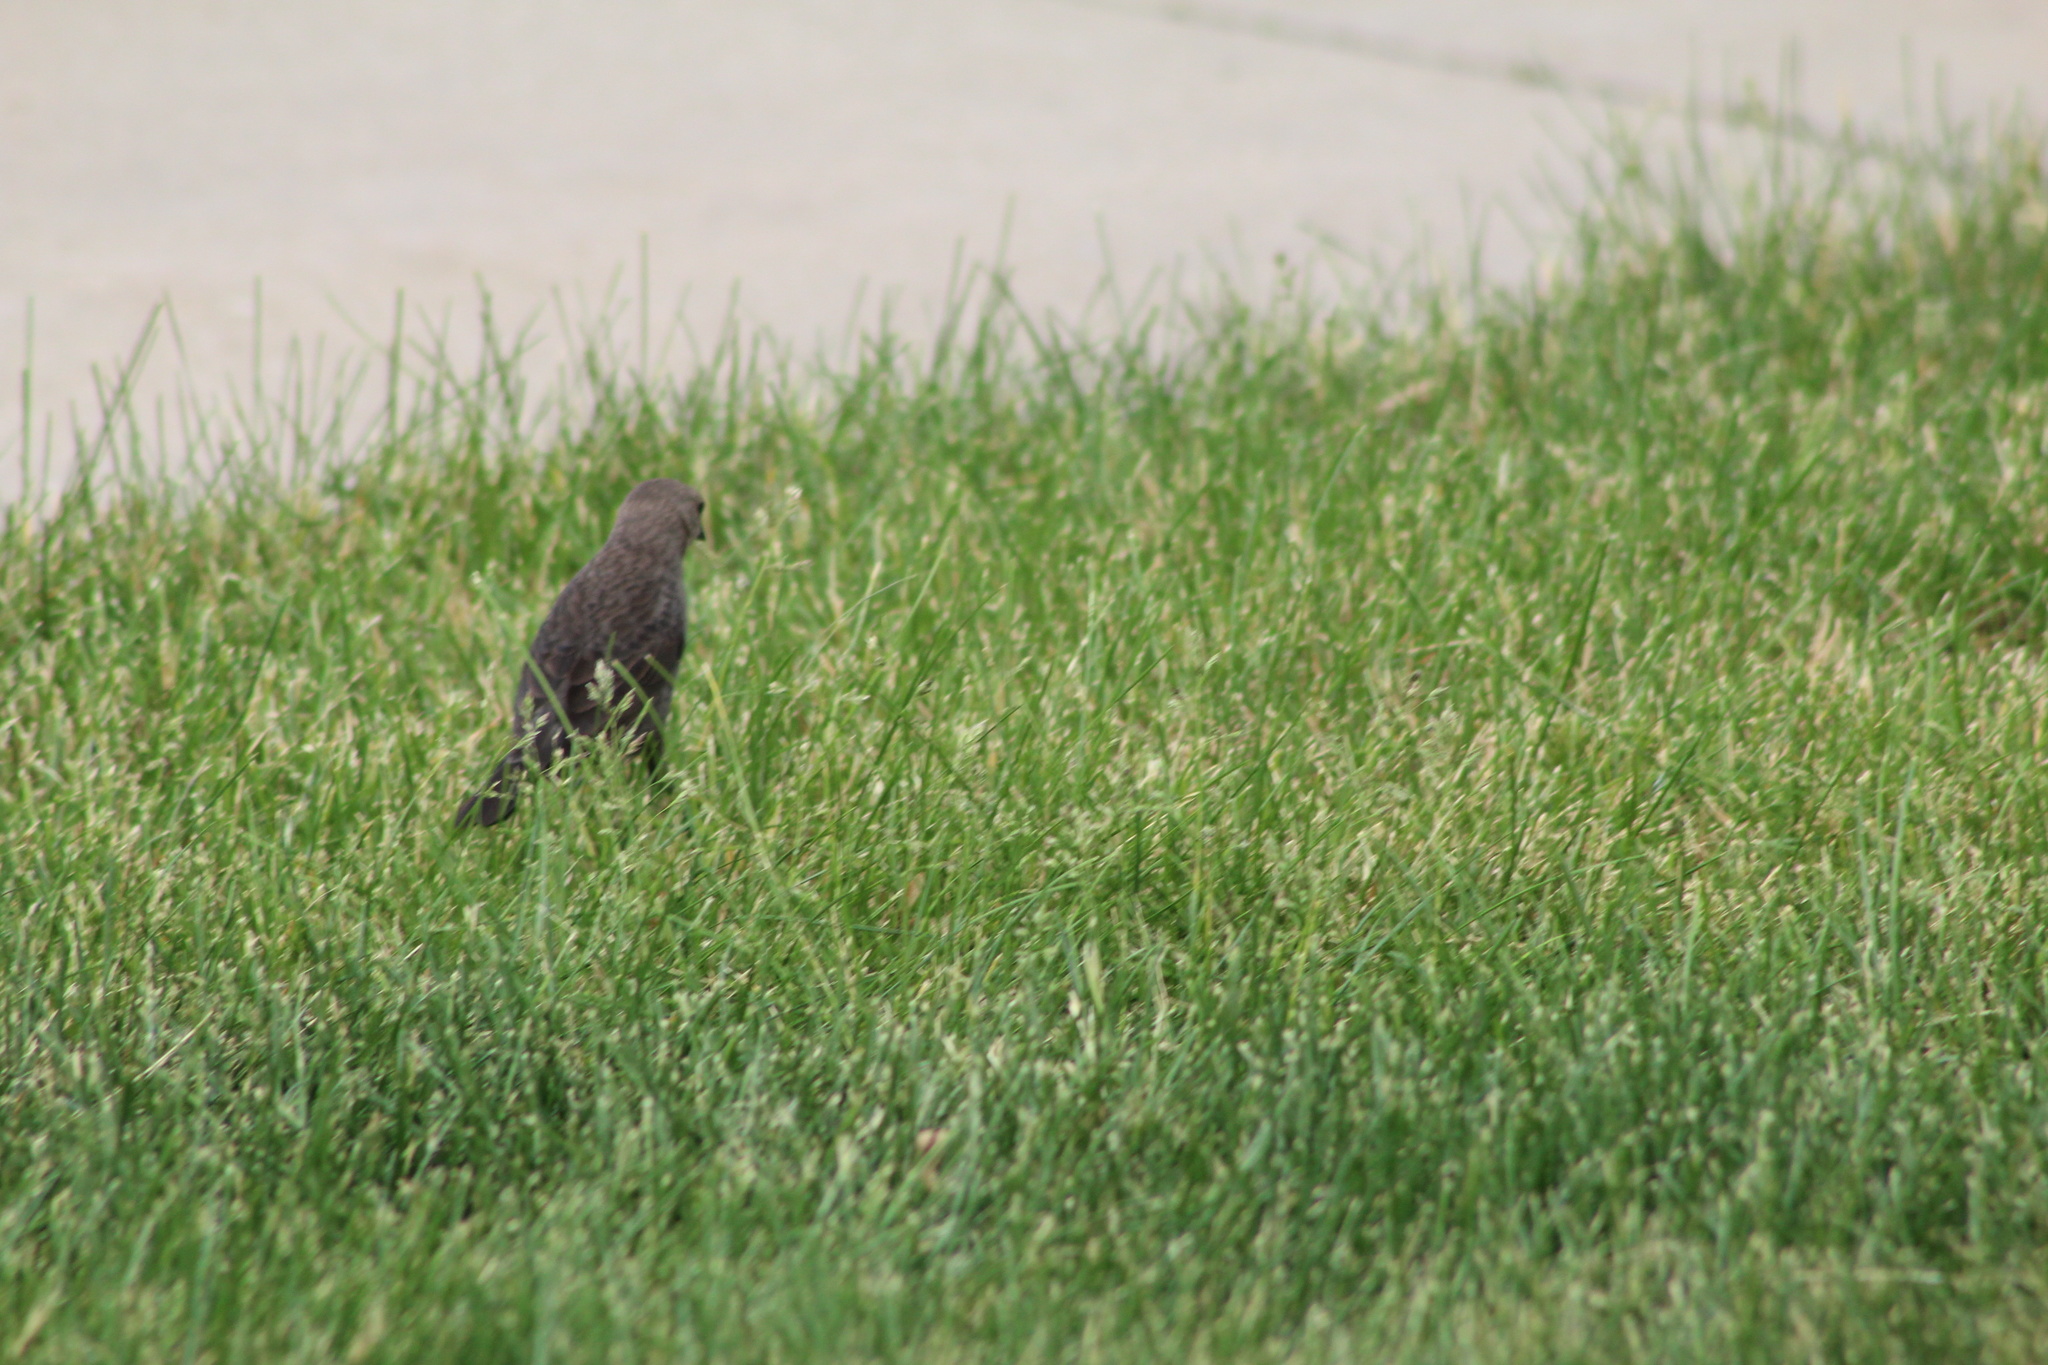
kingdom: Animalia
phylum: Chordata
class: Aves
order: Passeriformes
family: Icteridae
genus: Molothrus
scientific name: Molothrus ater
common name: Brown-headed cowbird
